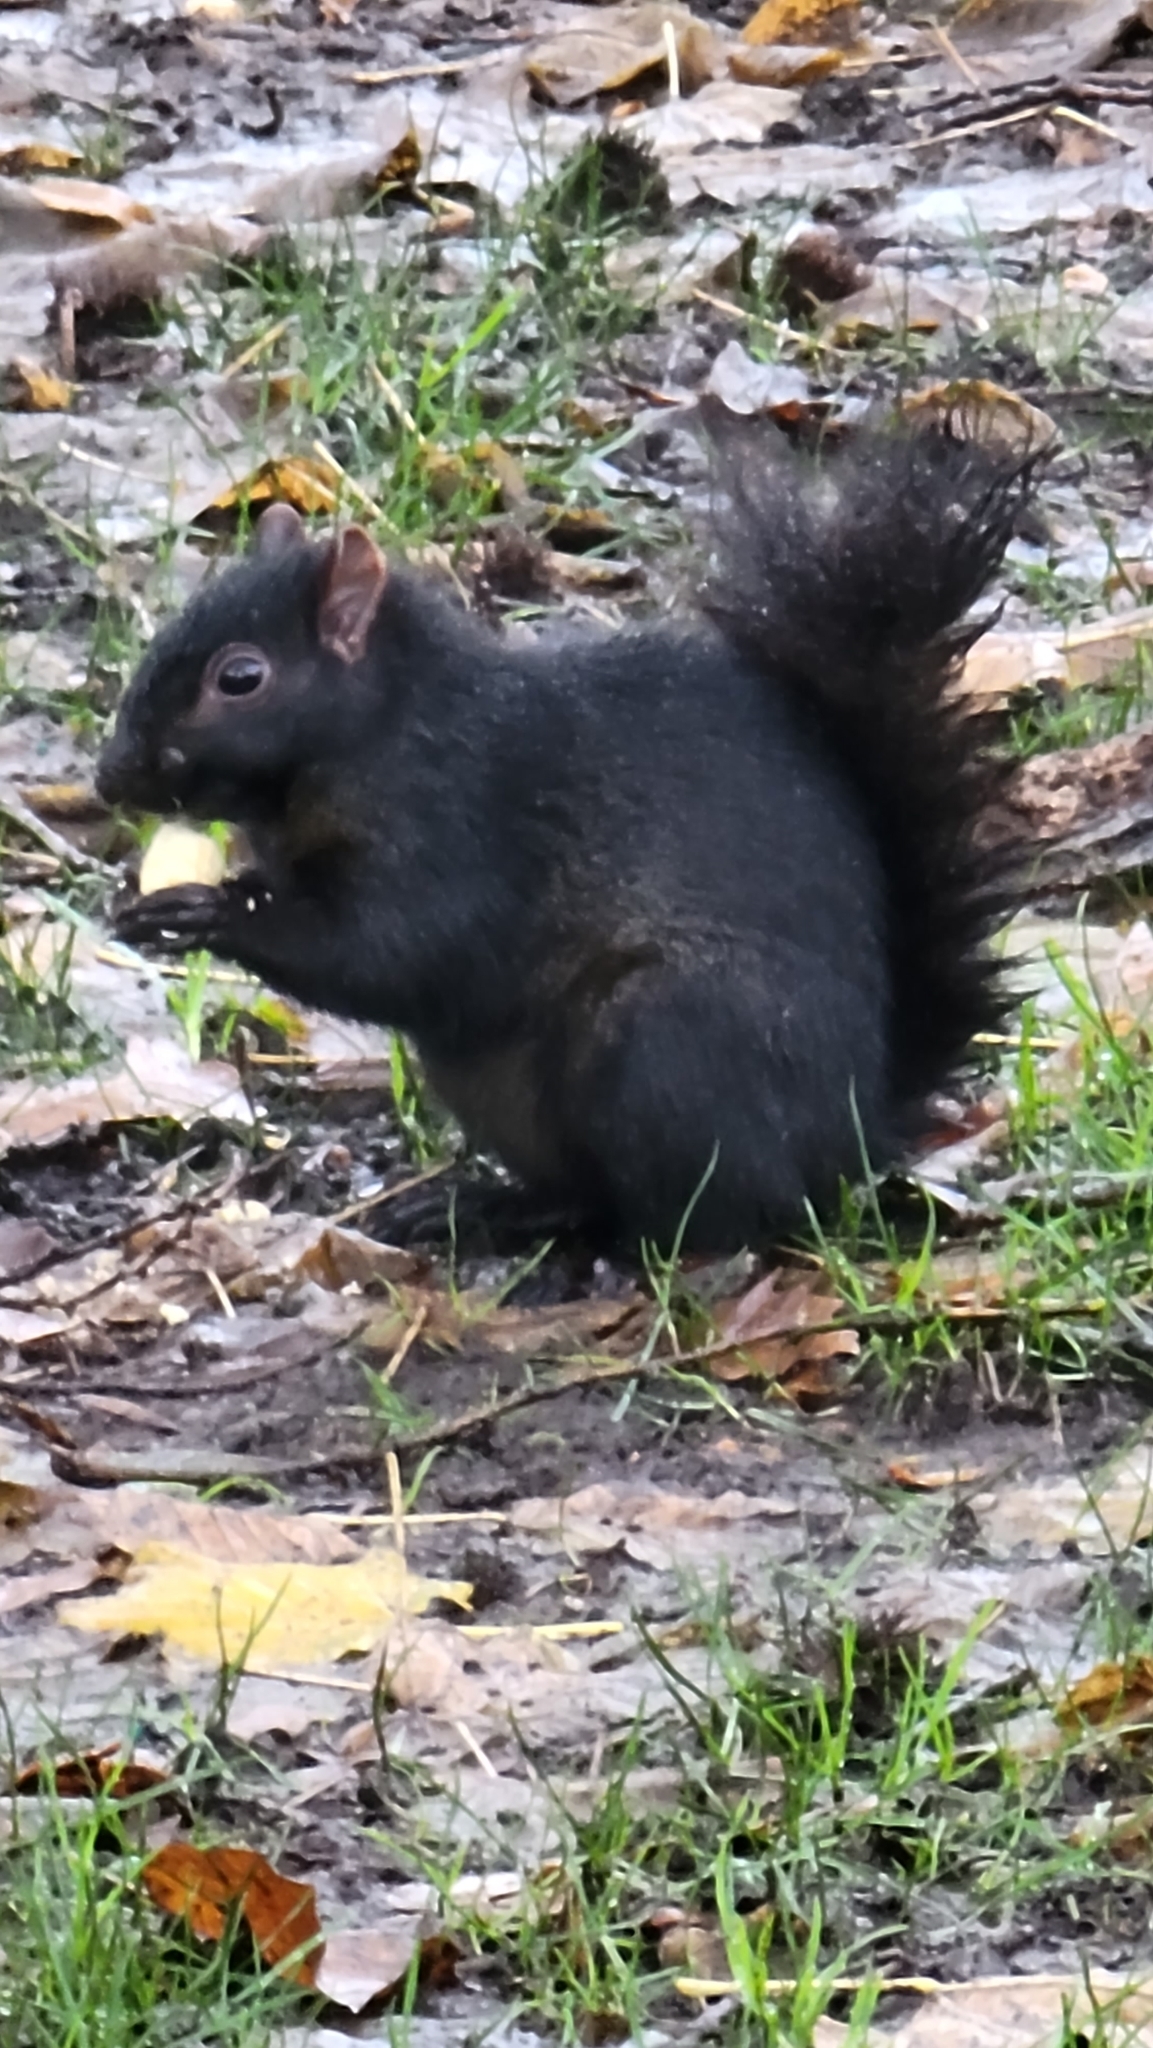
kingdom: Animalia
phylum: Chordata
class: Mammalia
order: Rodentia
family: Sciuridae
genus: Sciurus
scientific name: Sciurus carolinensis
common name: Eastern gray squirrel
